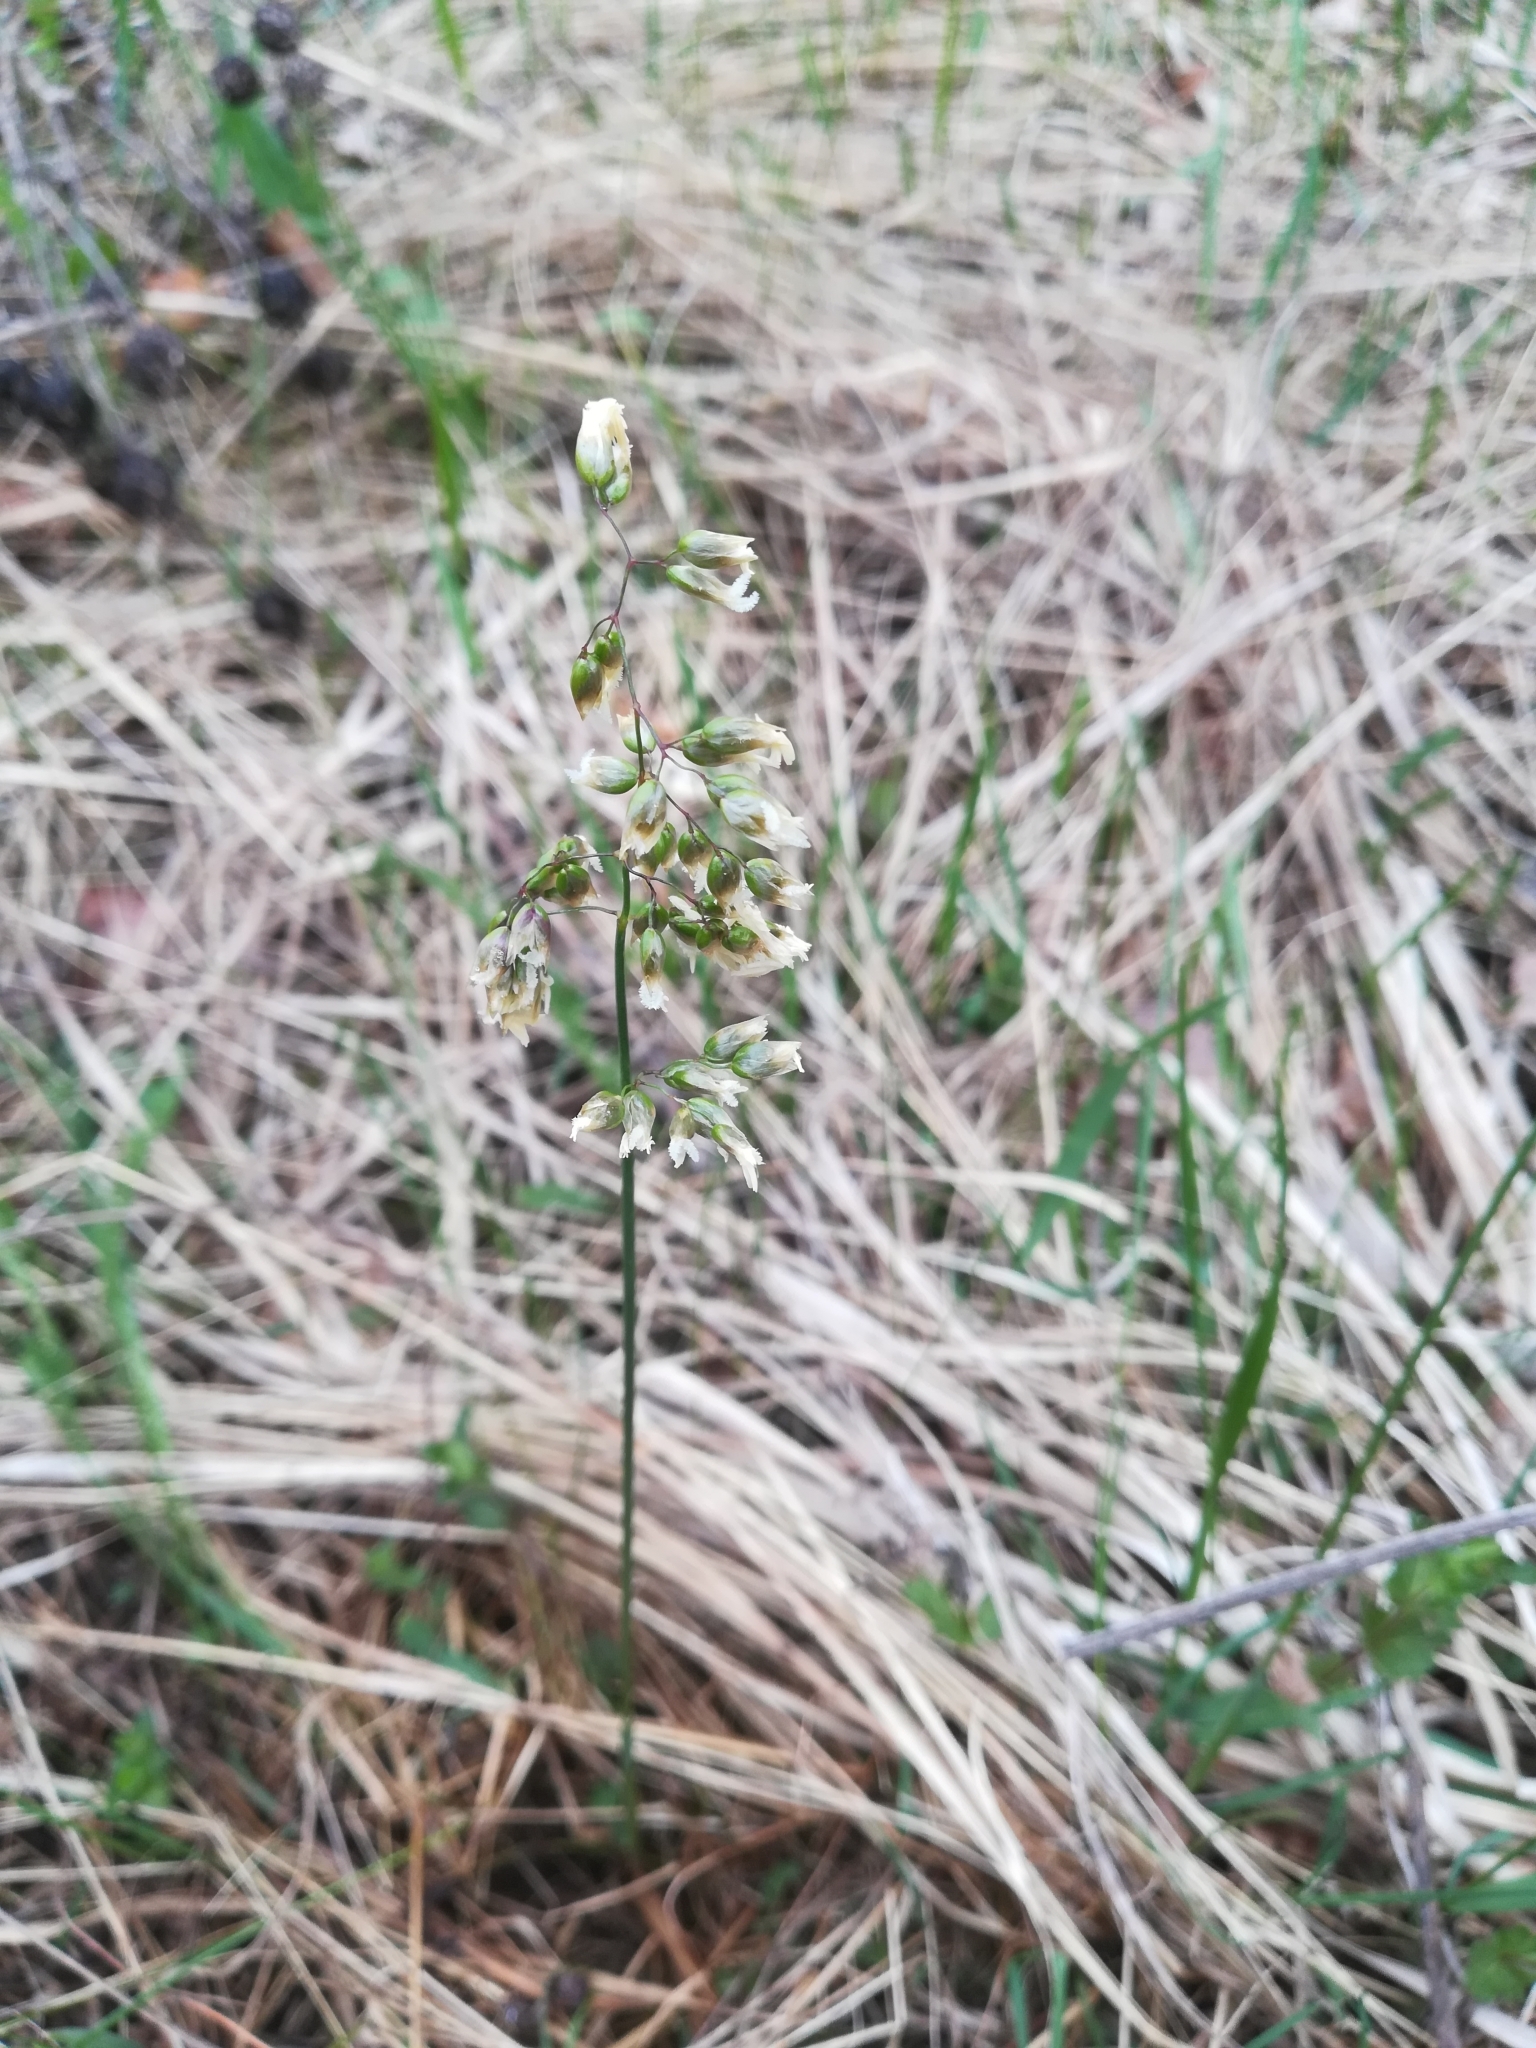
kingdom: Plantae
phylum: Tracheophyta
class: Liliopsida
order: Poales
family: Poaceae
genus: Anthoxanthum
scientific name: Anthoxanthum nitens
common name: Holy grass
